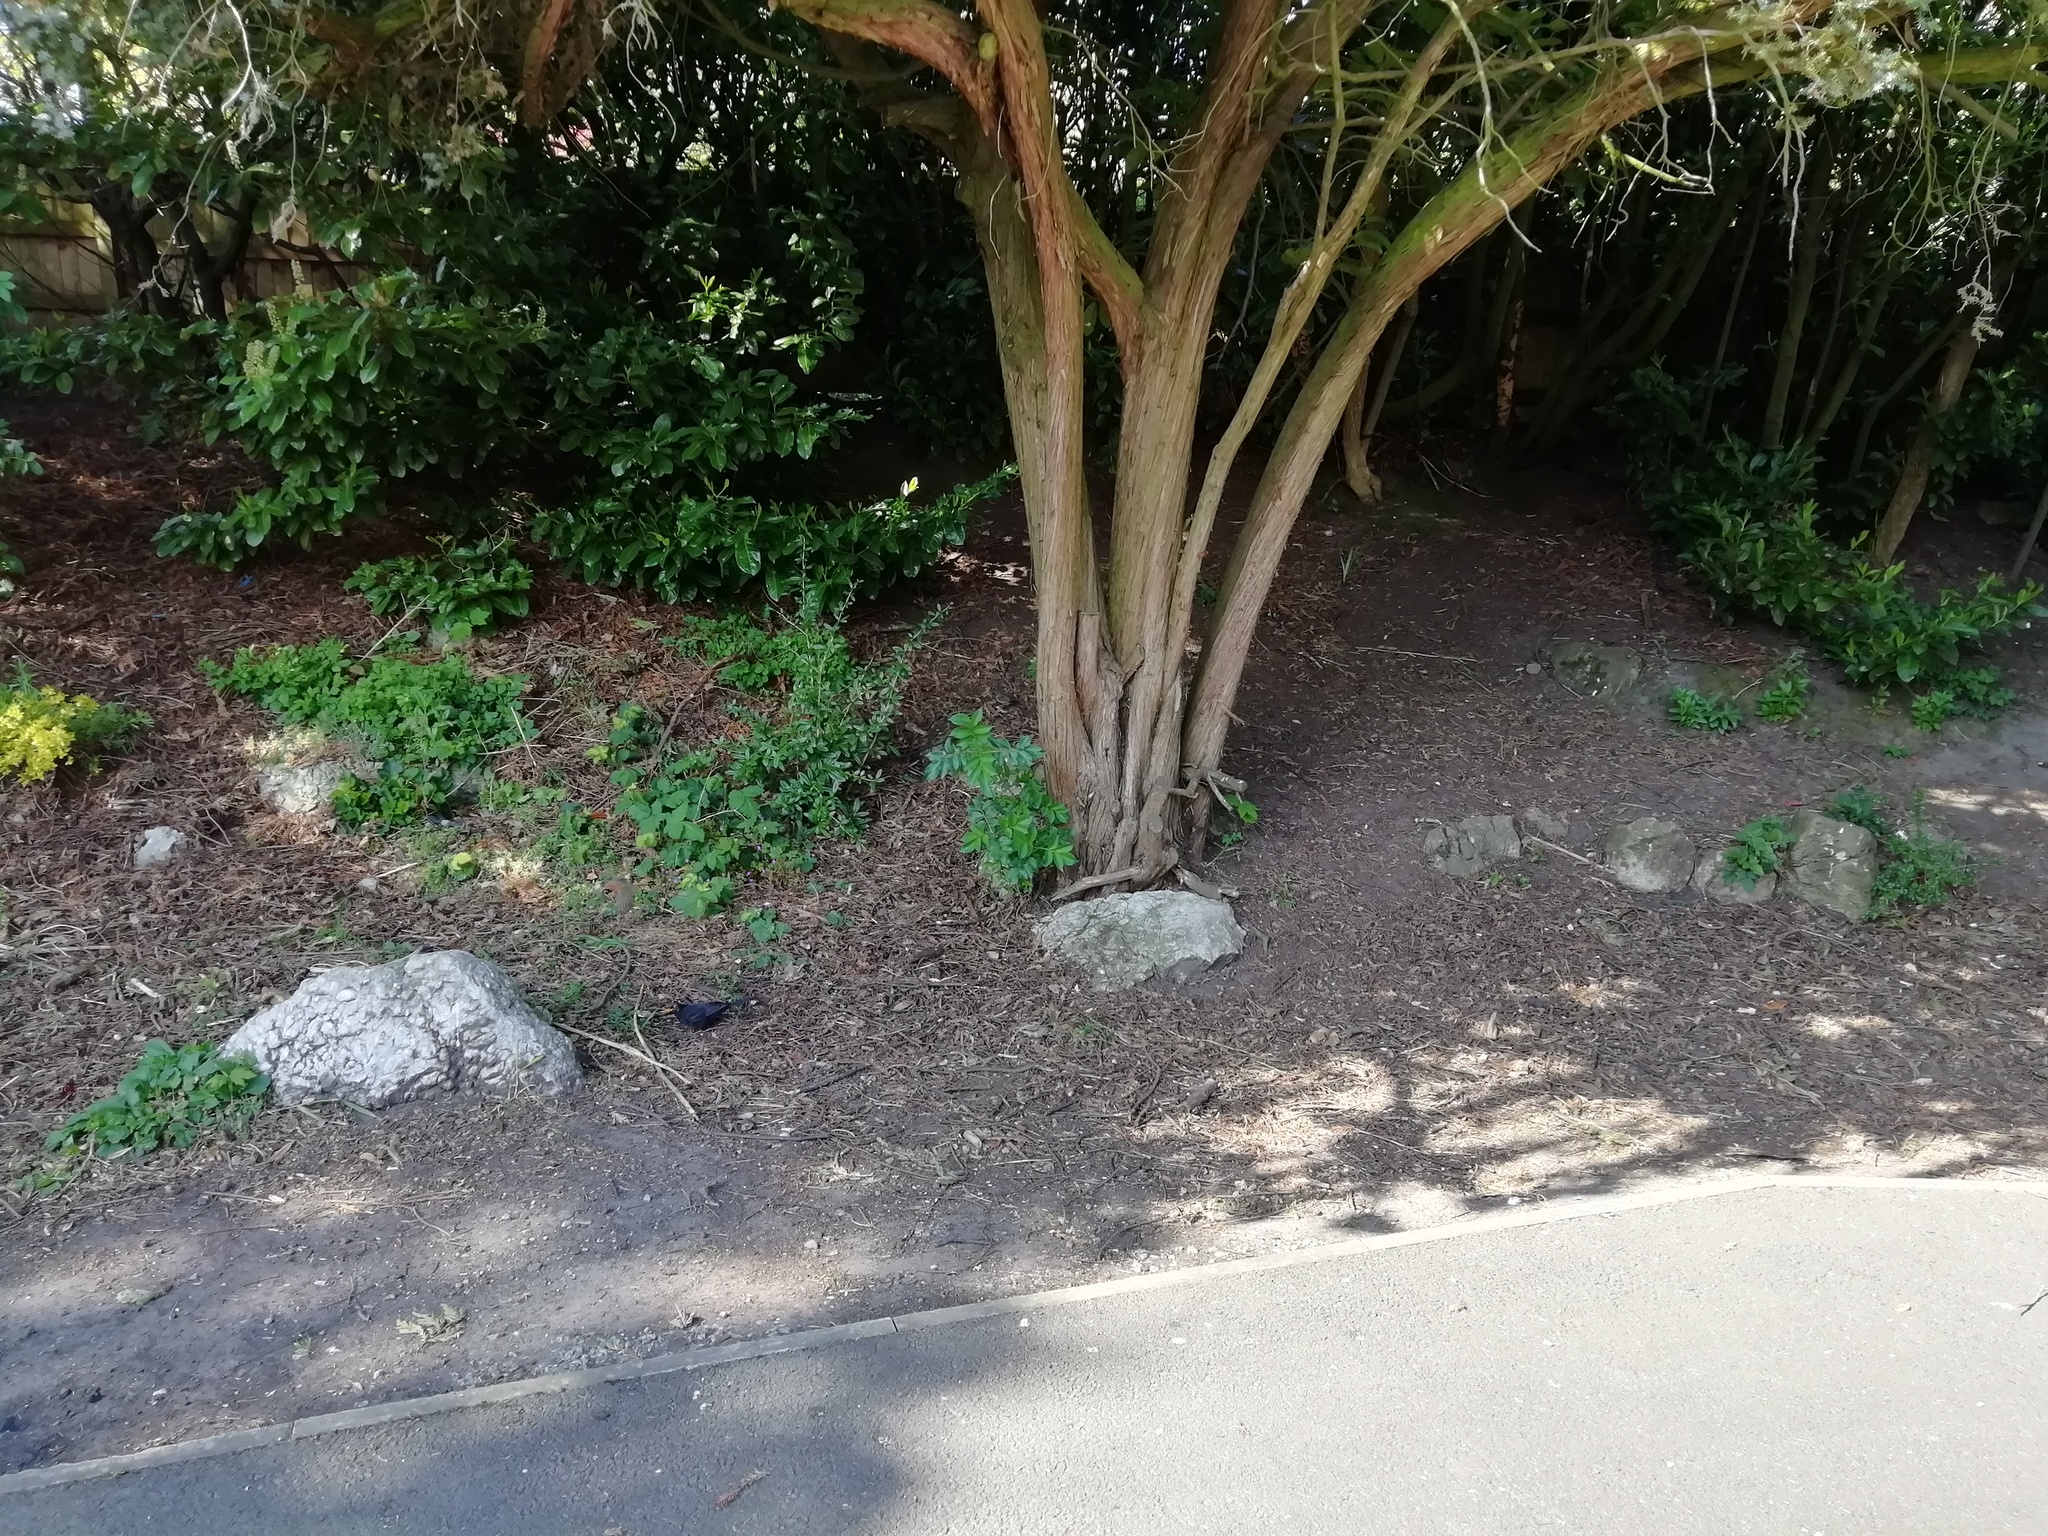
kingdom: Animalia
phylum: Chordata
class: Aves
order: Passeriformes
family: Turdidae
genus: Turdus
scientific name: Turdus merula
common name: Common blackbird
